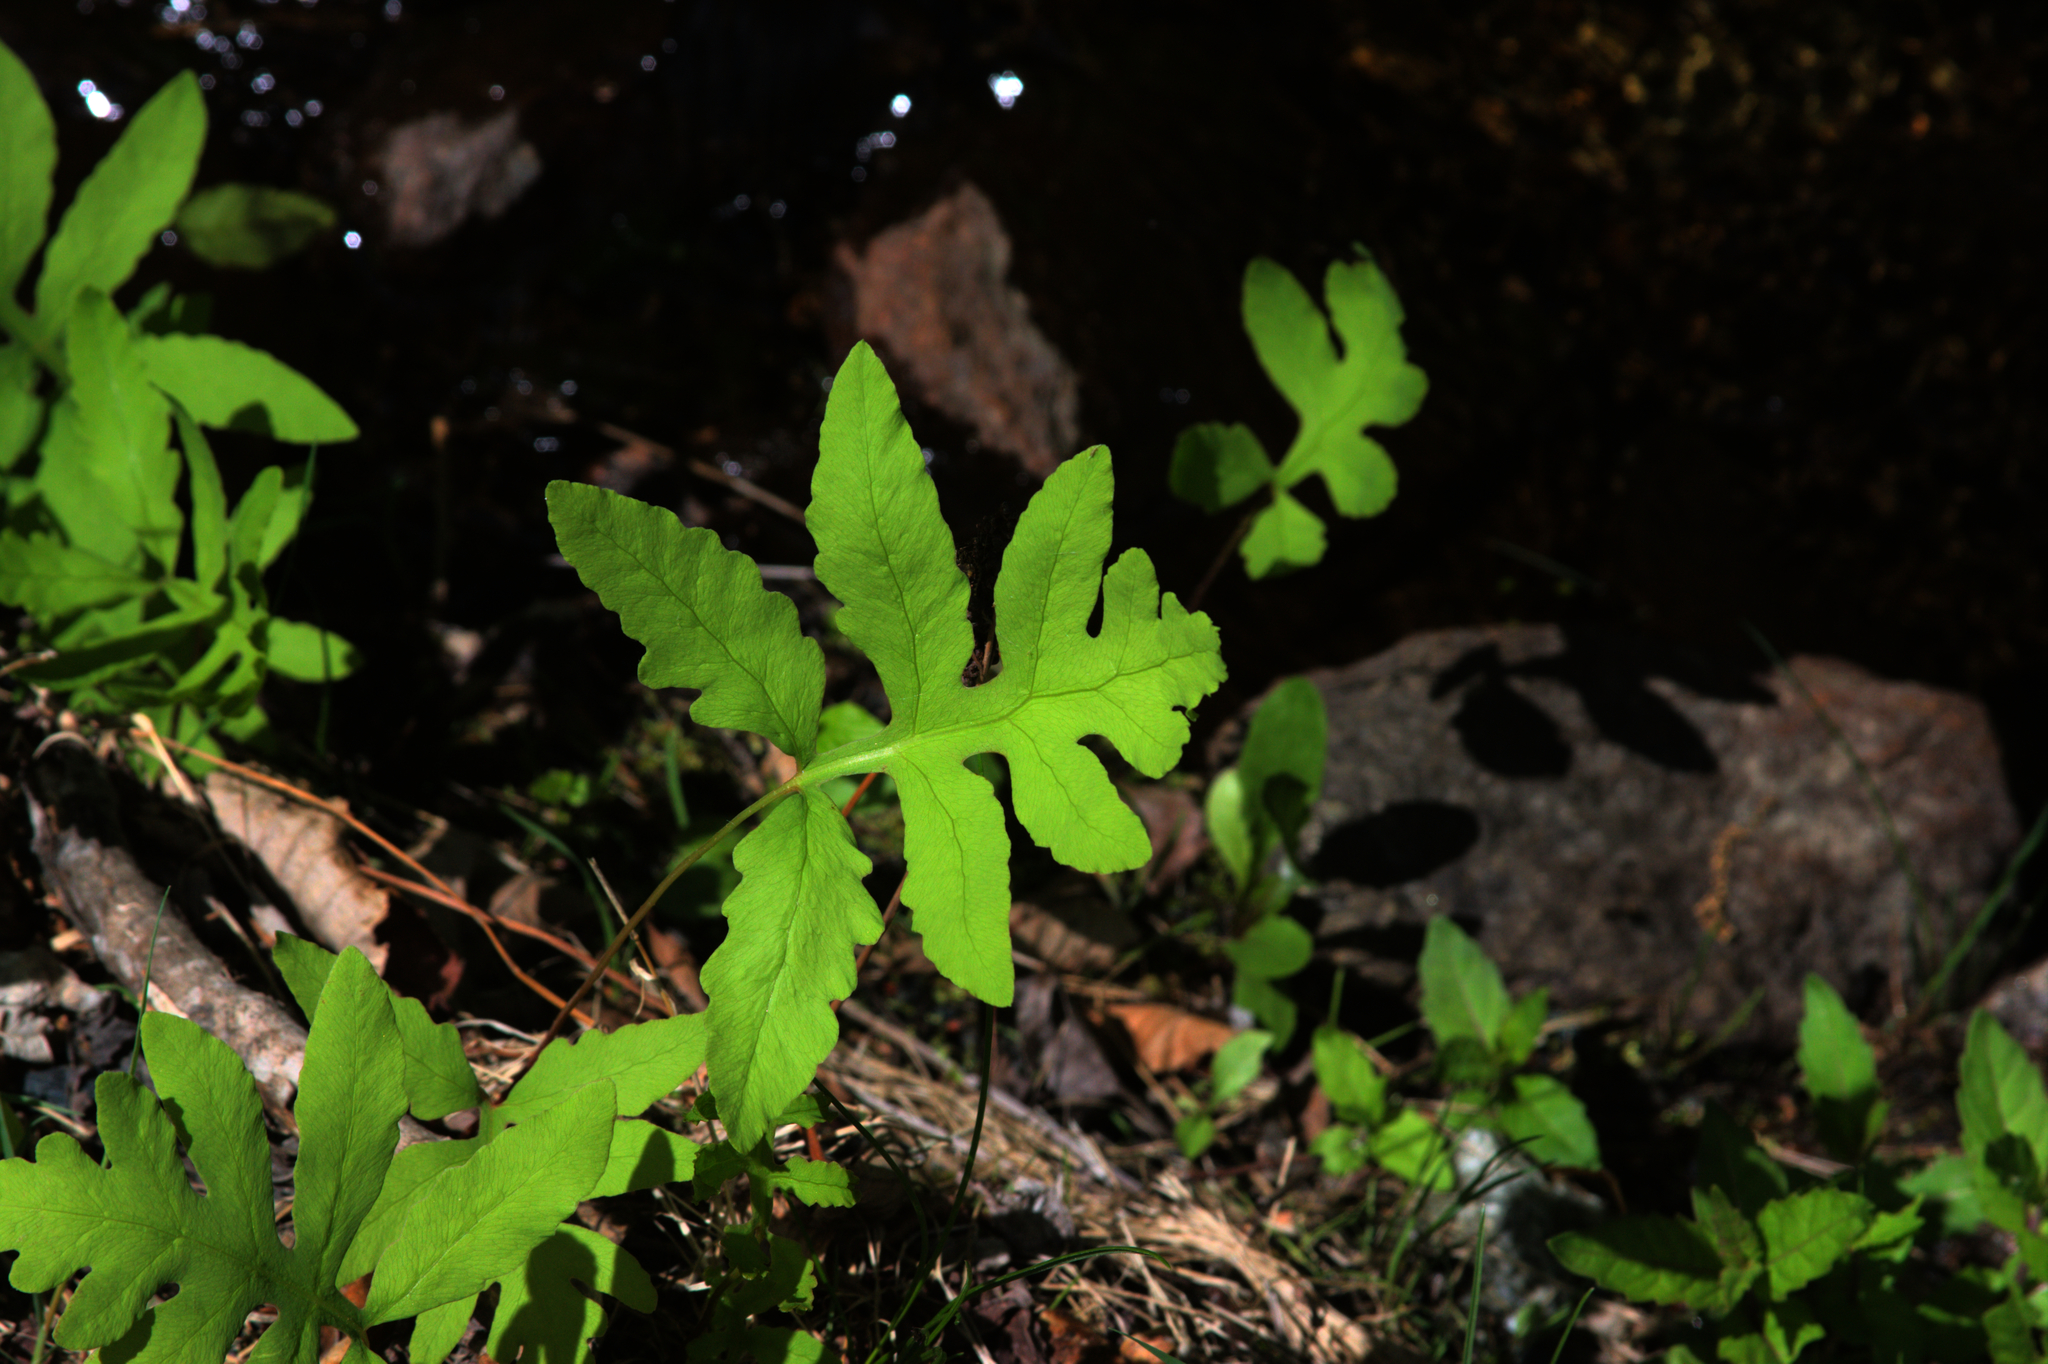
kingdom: Plantae
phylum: Tracheophyta
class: Polypodiopsida
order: Polypodiales
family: Onocleaceae
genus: Onoclea
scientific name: Onoclea sensibilis
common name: Sensitive fern
